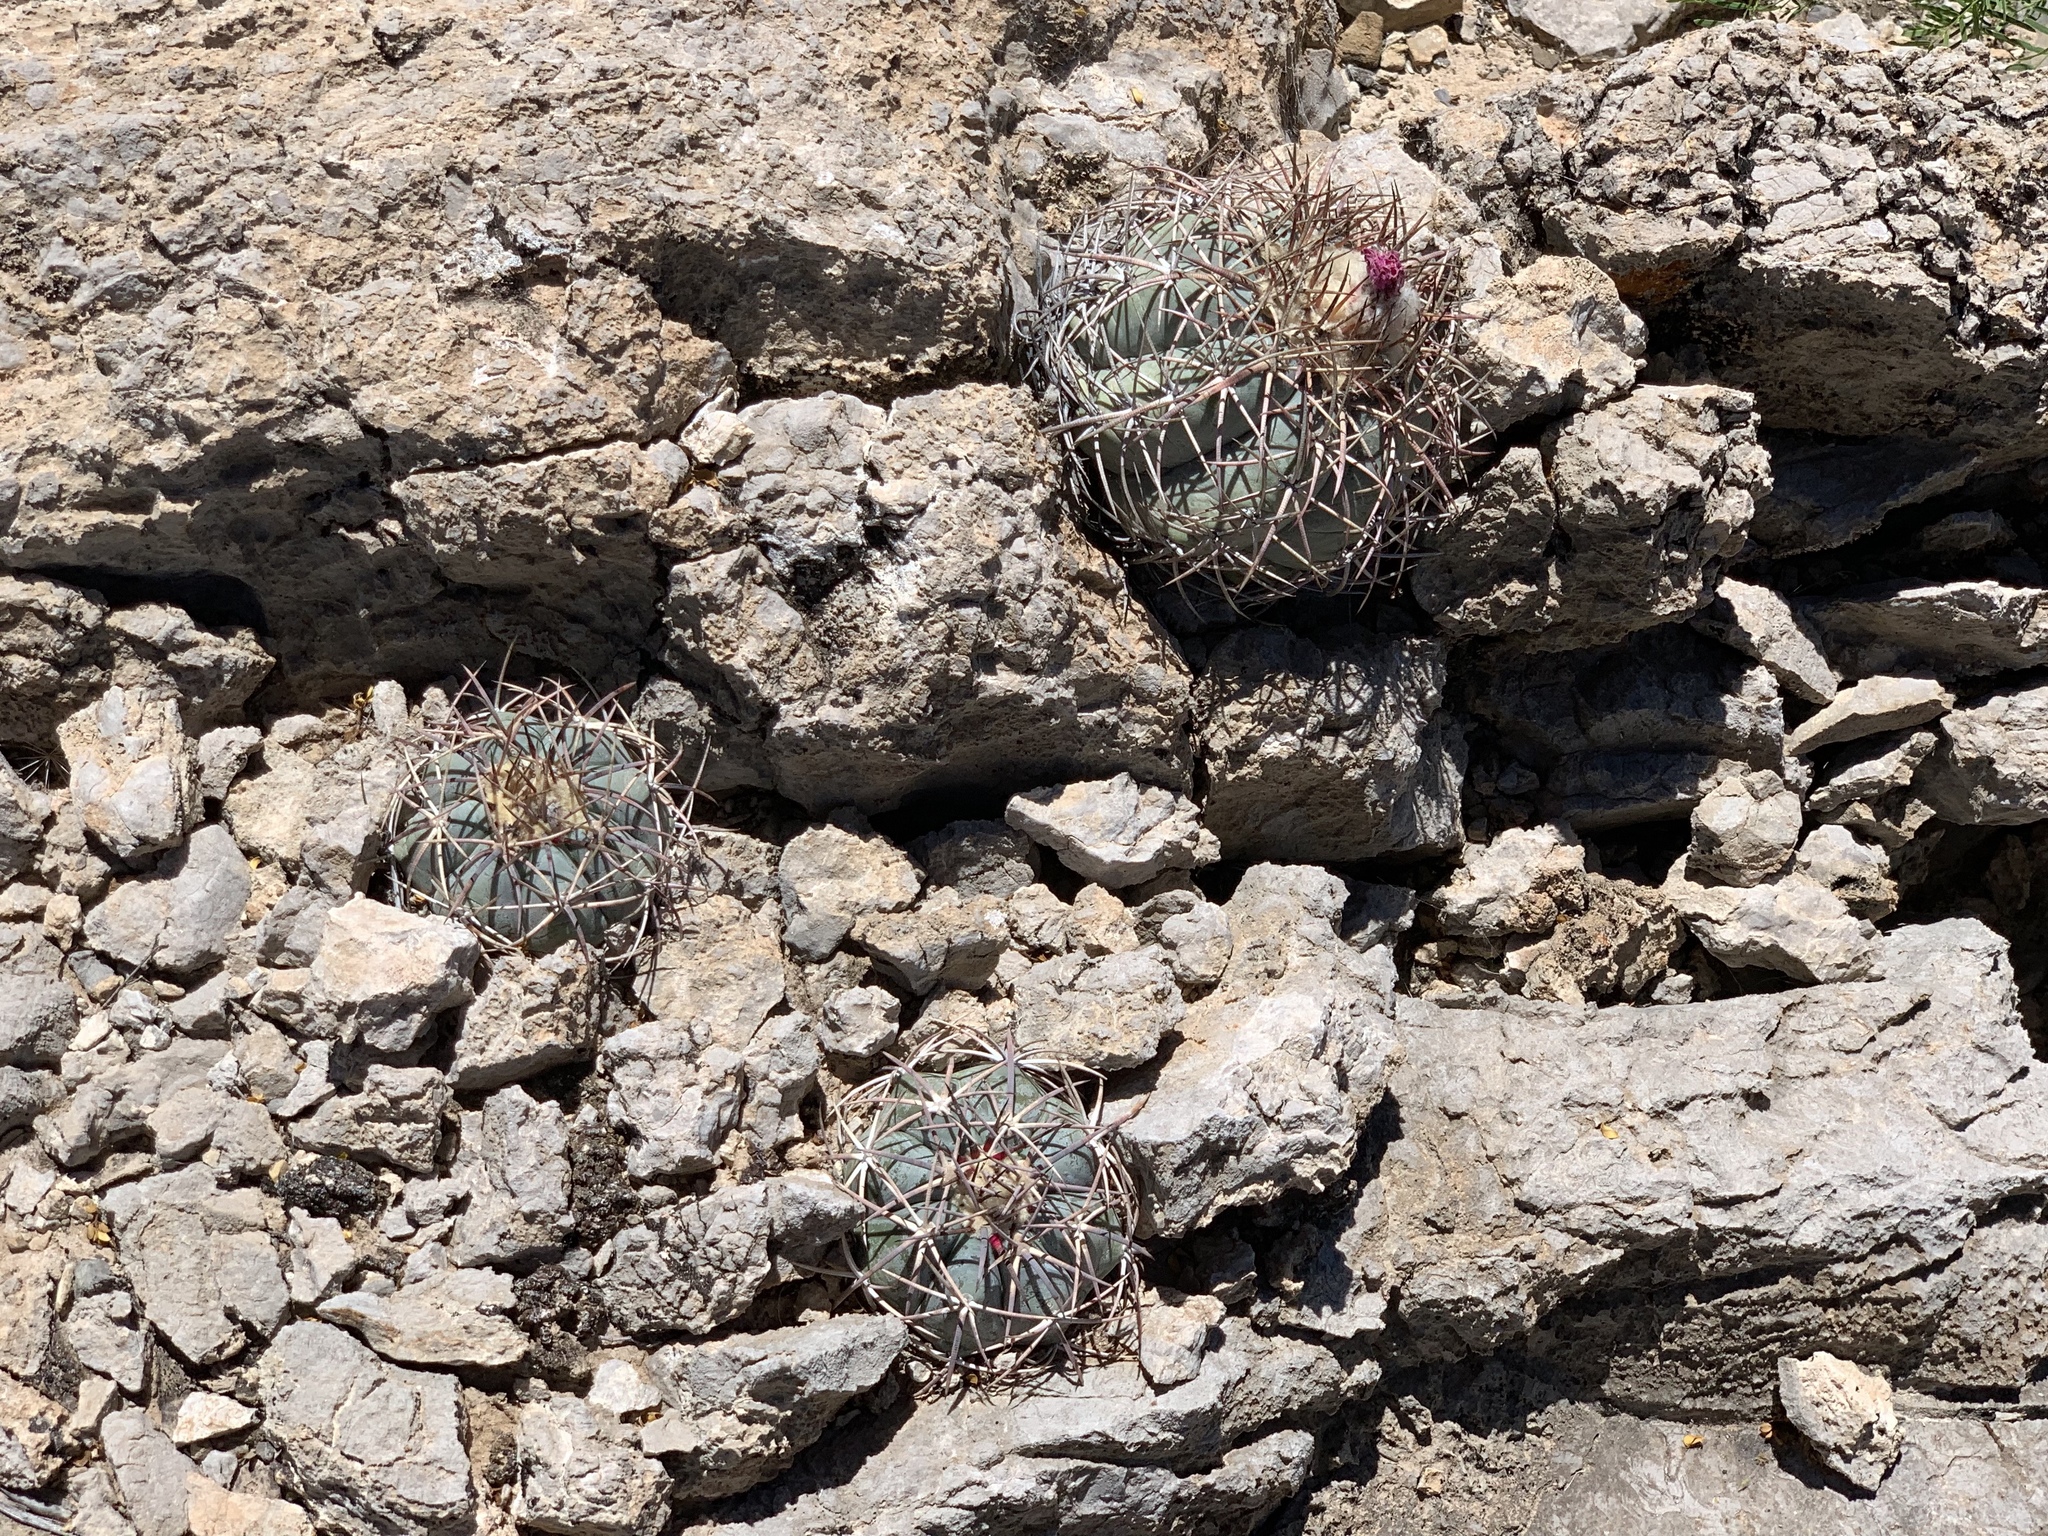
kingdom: Plantae
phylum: Tracheophyta
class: Magnoliopsida
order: Caryophyllales
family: Cactaceae
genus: Echinocactus
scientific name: Echinocactus horizonthalonius
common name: Devilshead
